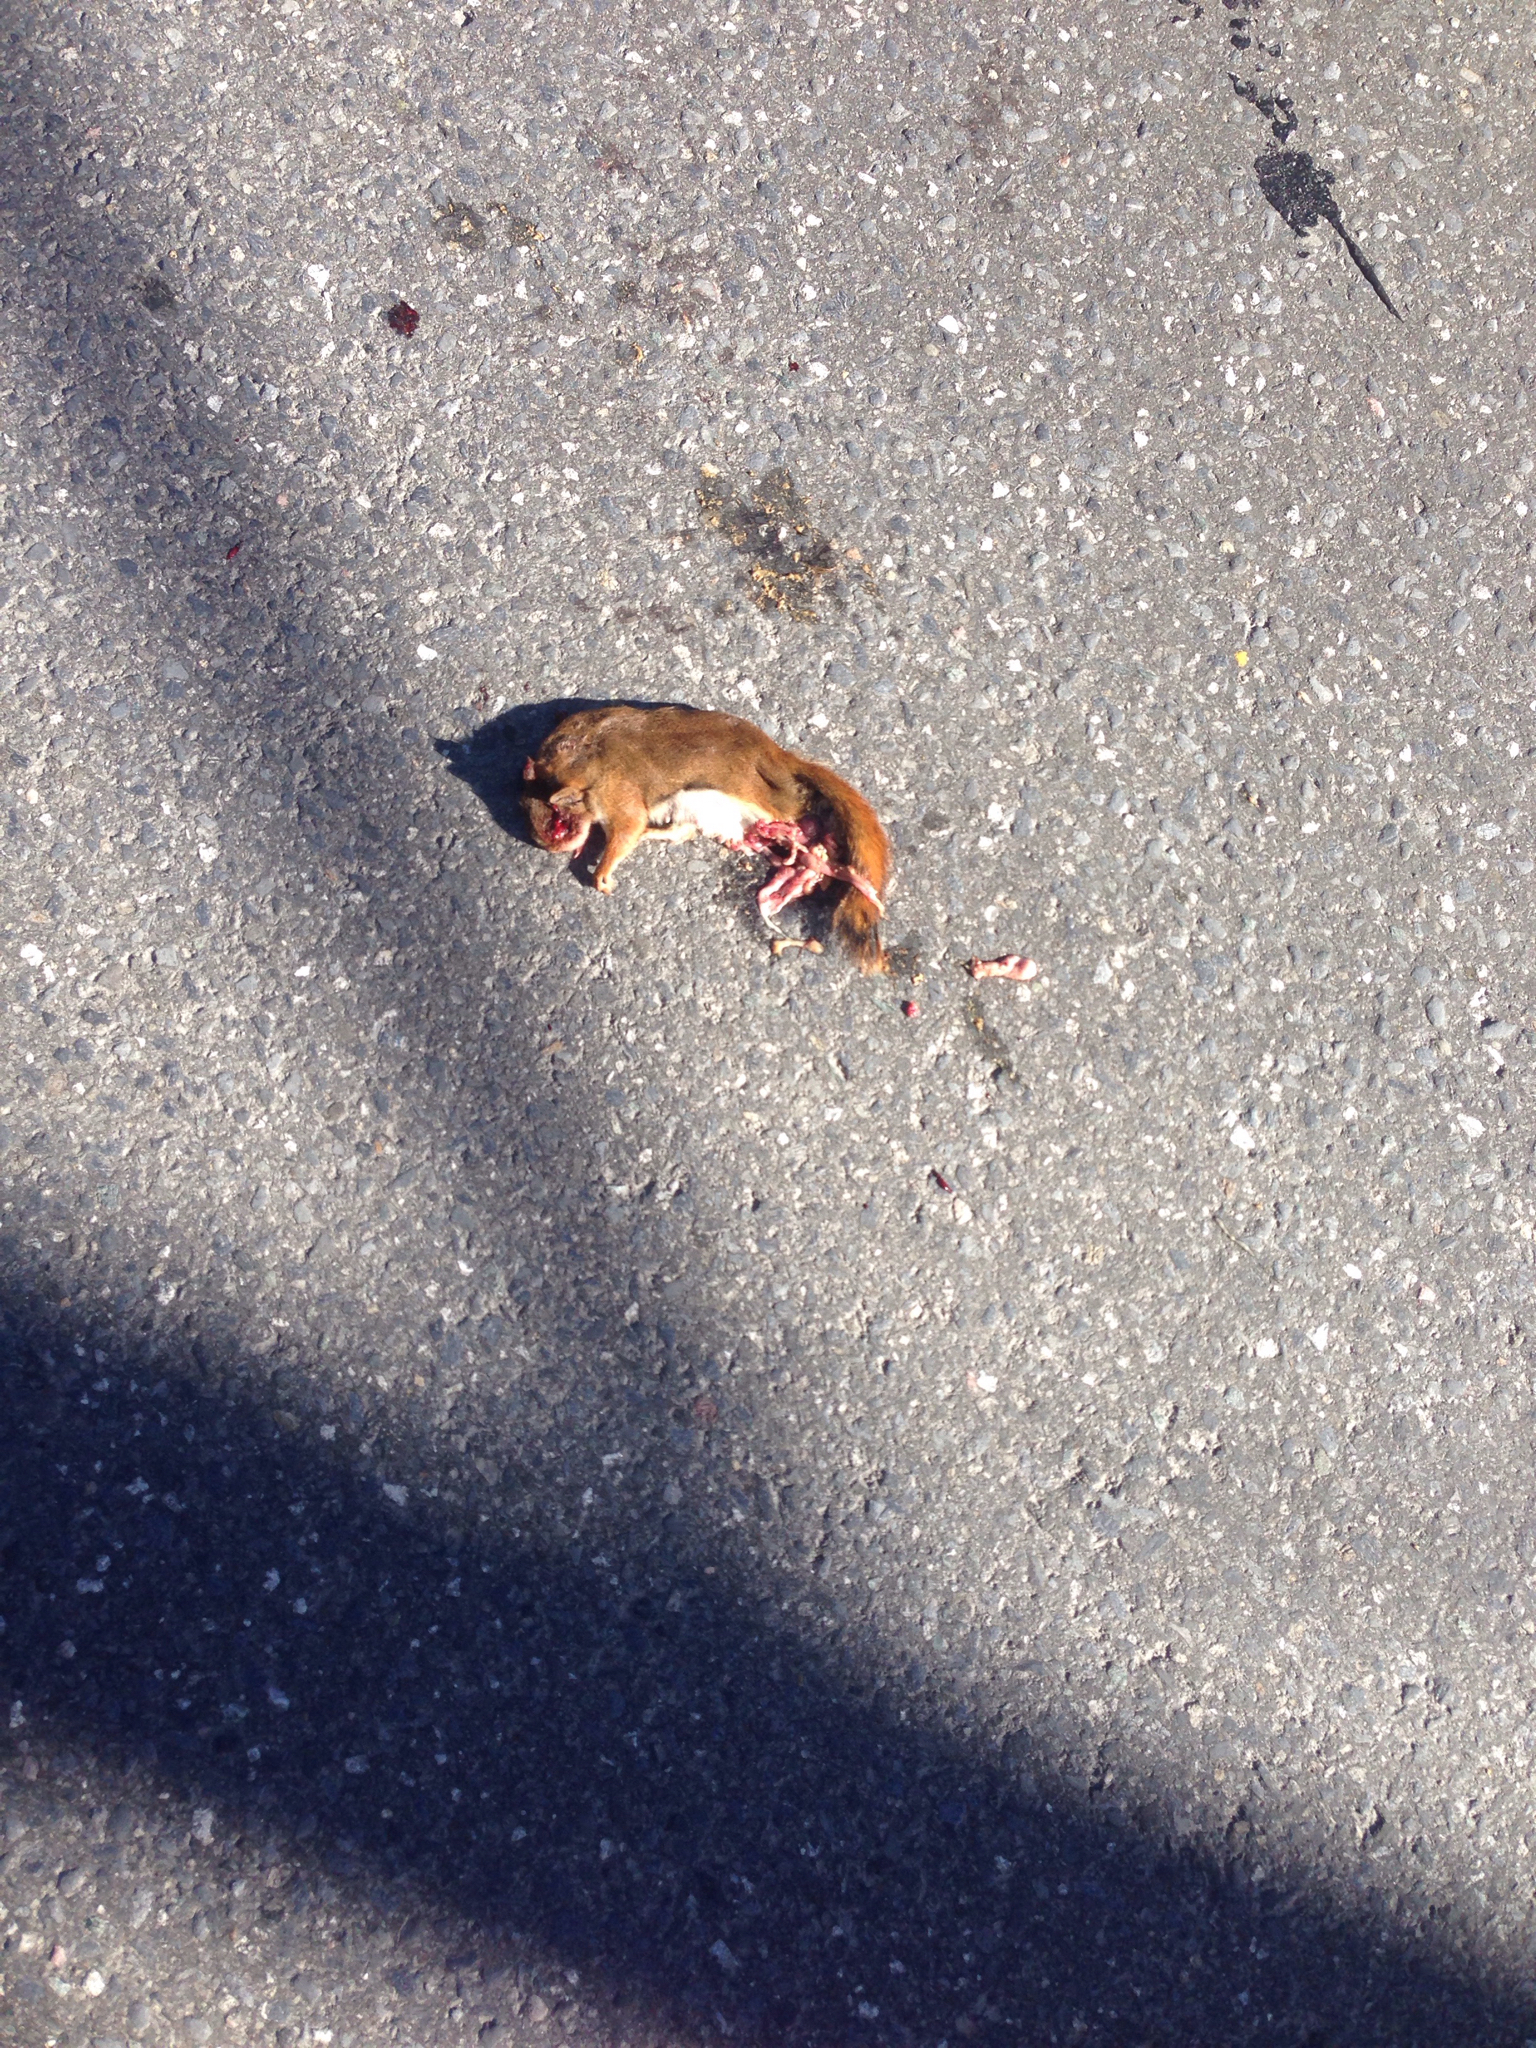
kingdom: Animalia
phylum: Chordata
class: Mammalia
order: Rodentia
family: Sciuridae
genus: Tamiasciurus
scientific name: Tamiasciurus hudsonicus
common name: Red squirrel
